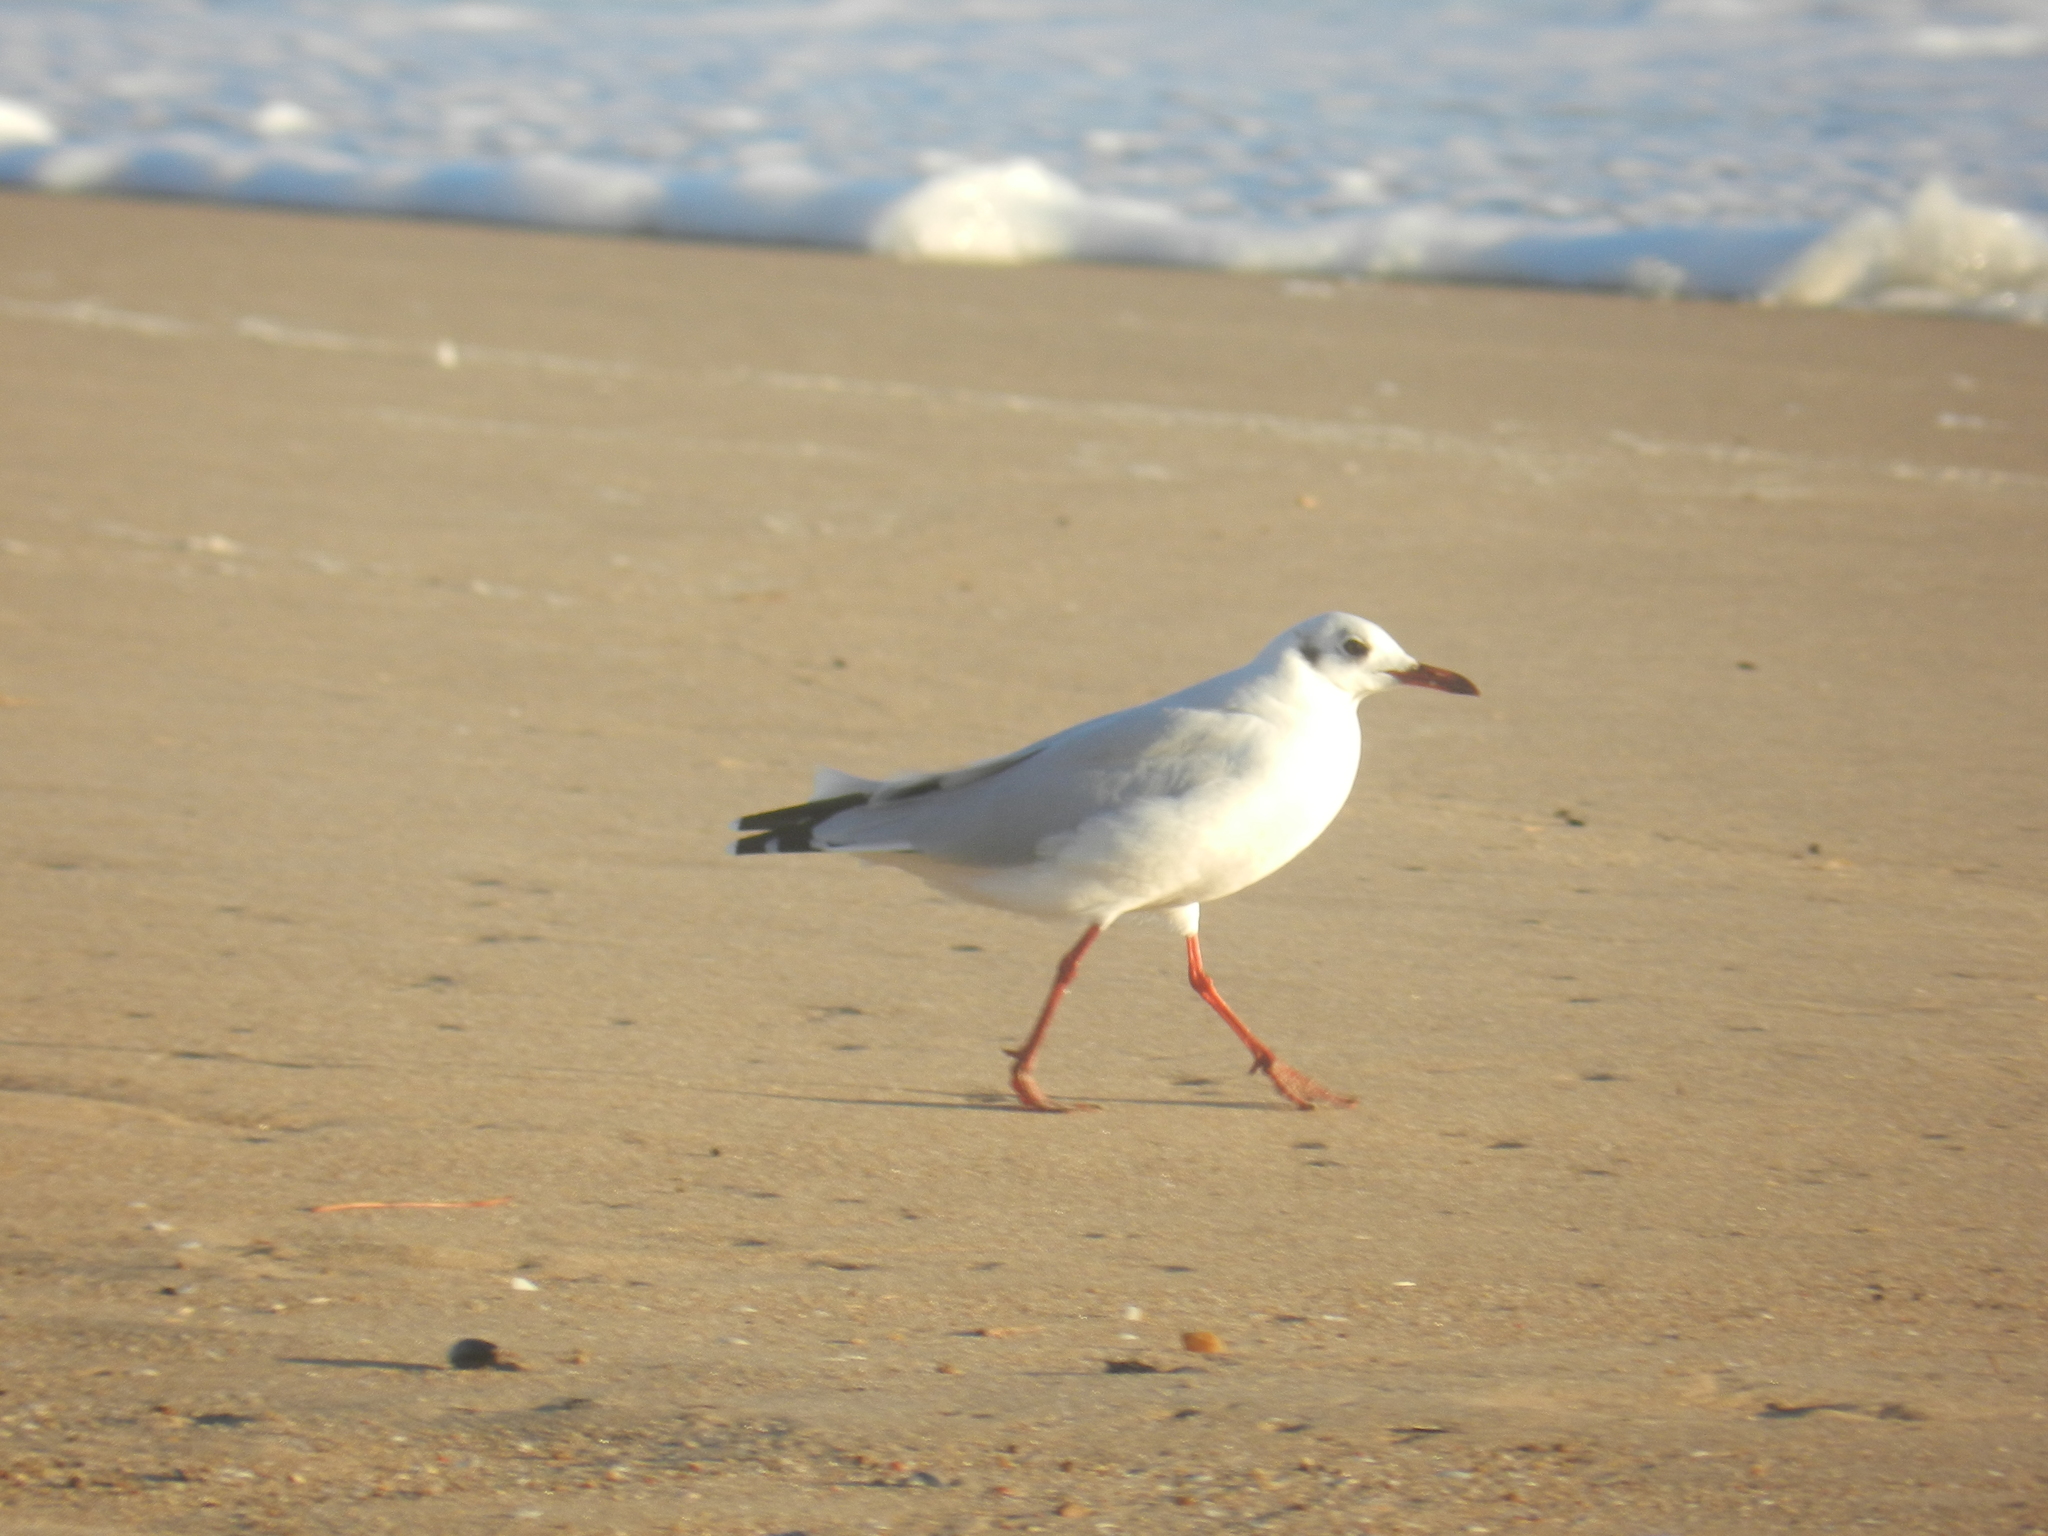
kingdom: Animalia
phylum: Chordata
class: Aves
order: Charadriiformes
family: Laridae
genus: Chroicocephalus
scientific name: Chroicocephalus maculipennis
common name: Brown-hooded gull
